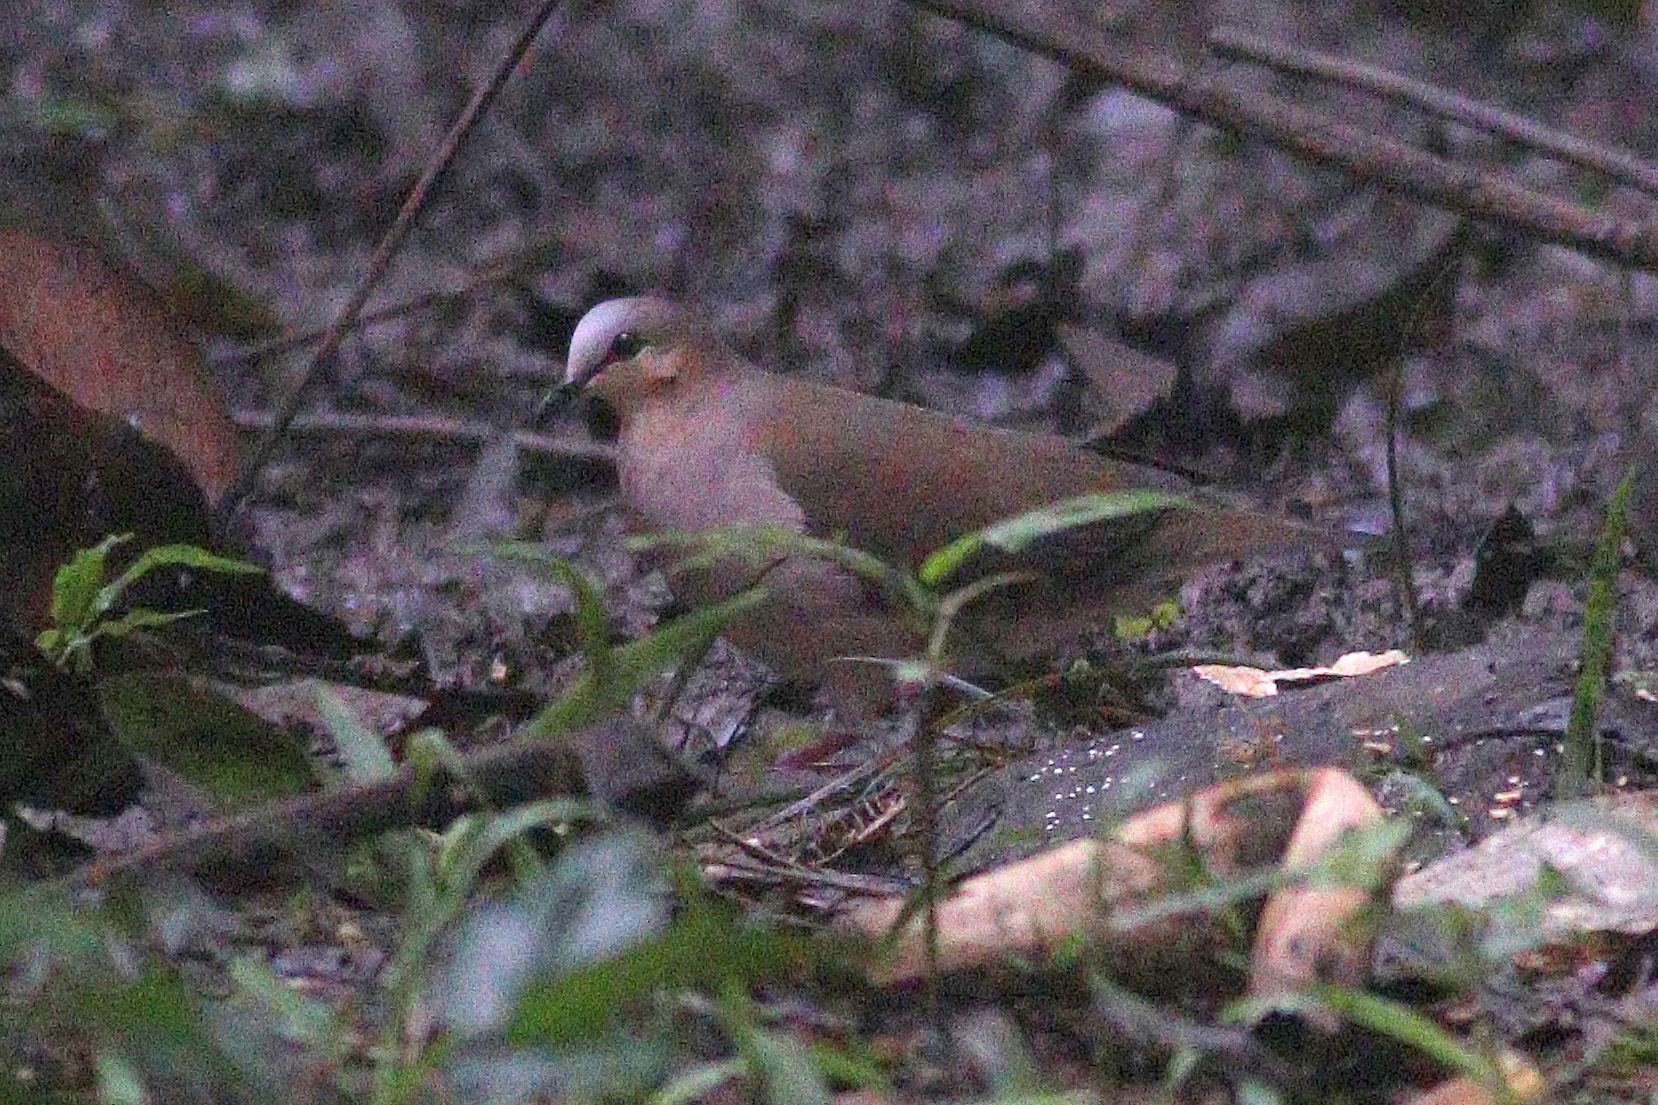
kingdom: Animalia
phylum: Chordata
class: Aves
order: Columbiformes
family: Columbidae
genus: Leptotila
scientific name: Leptotila rufaxilla
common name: Grey-fronted dove
